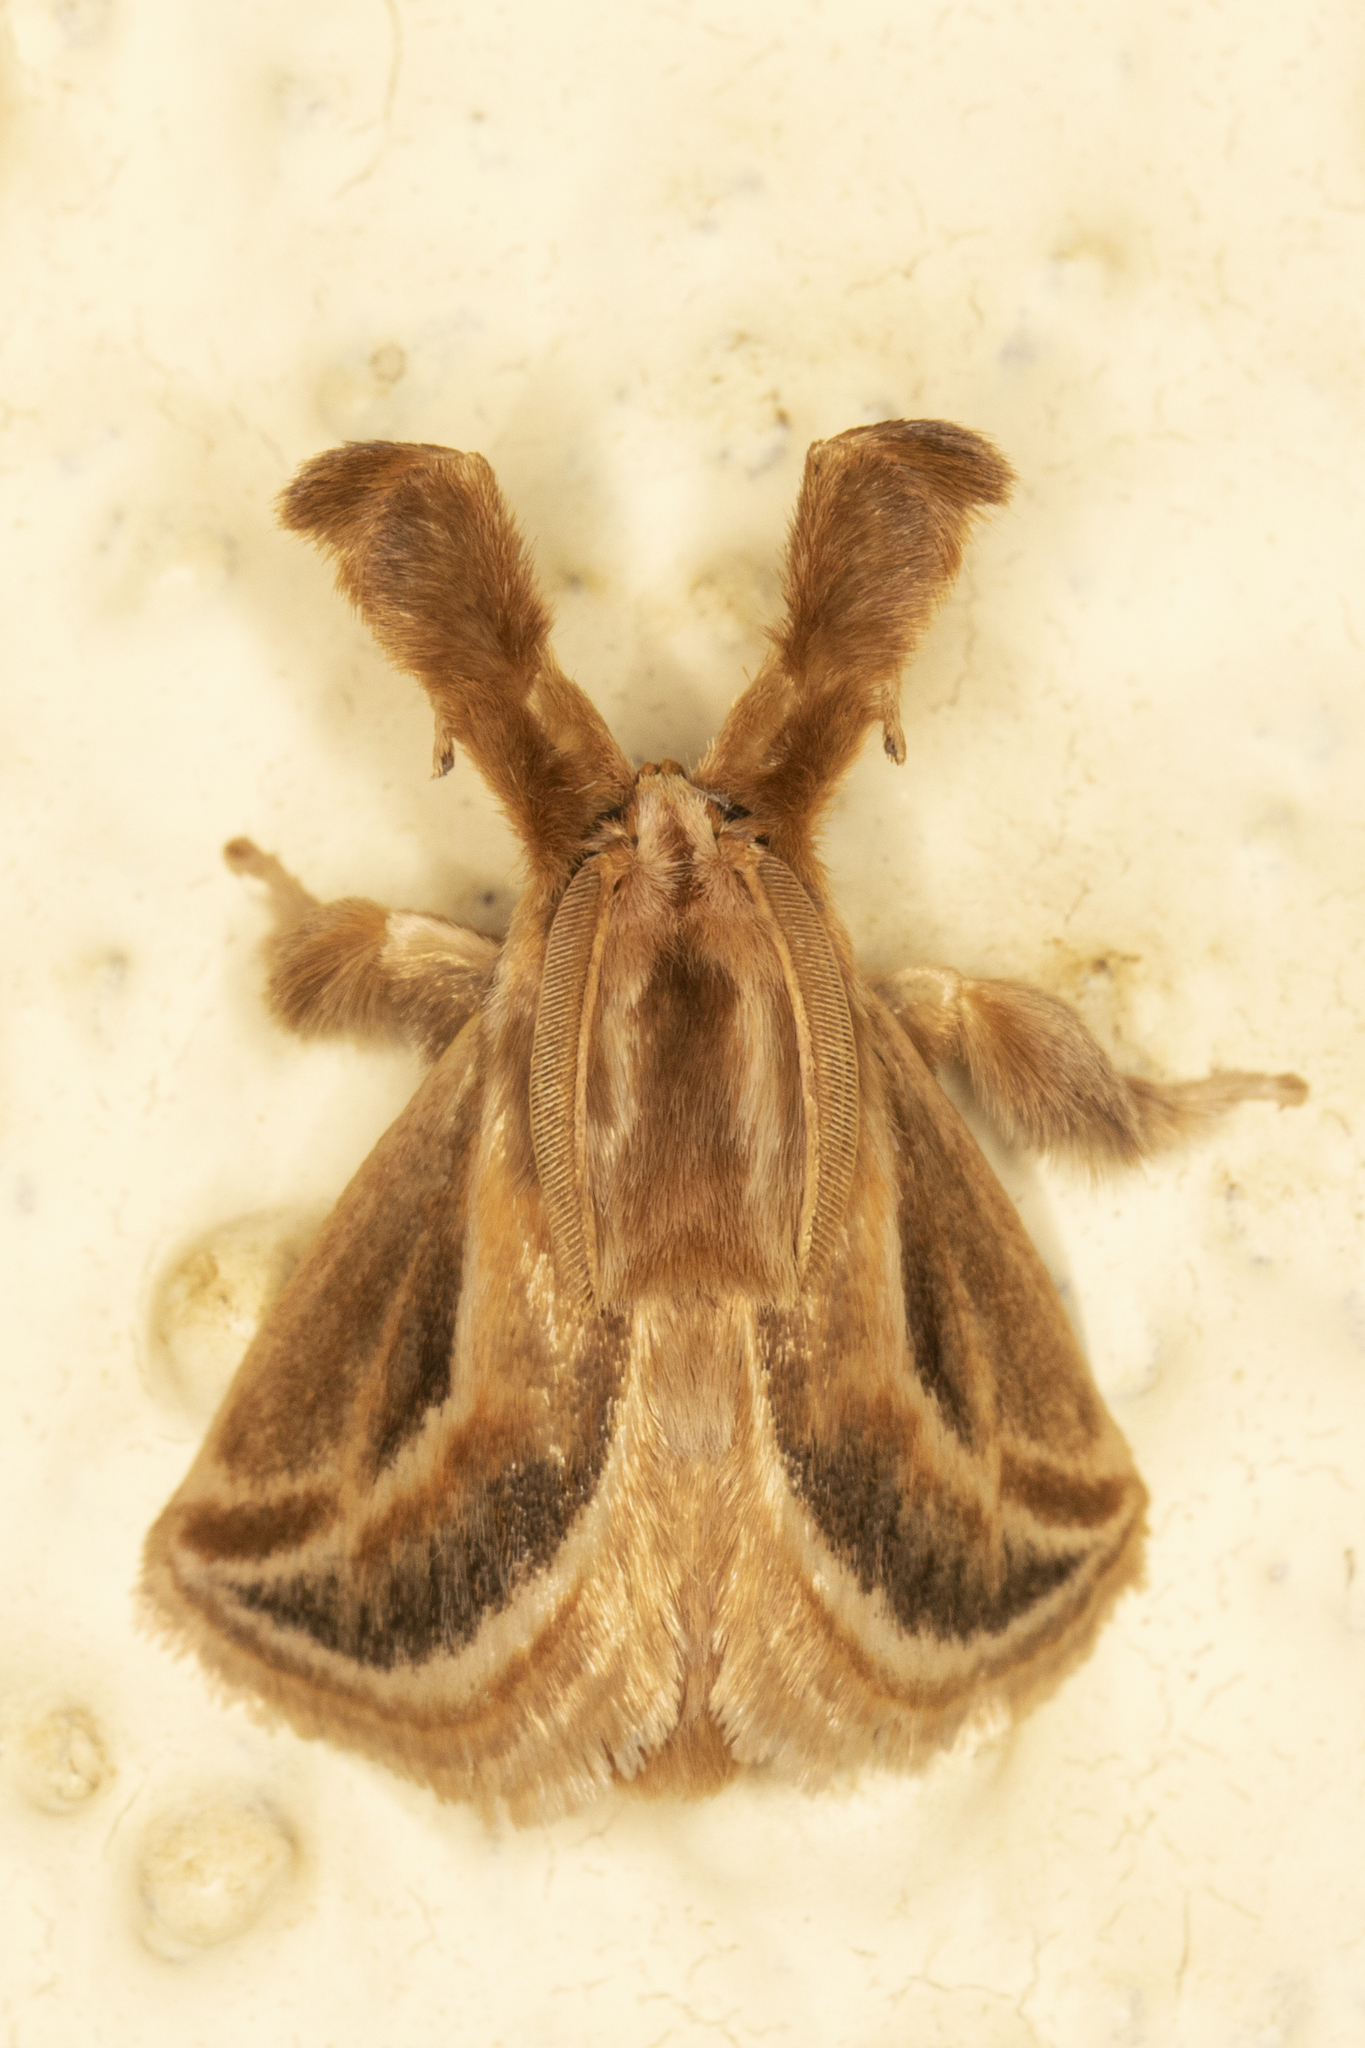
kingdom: Animalia
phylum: Arthropoda
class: Insecta
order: Lepidoptera
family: Limacodidae
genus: Perola
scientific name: Perola brumalis
